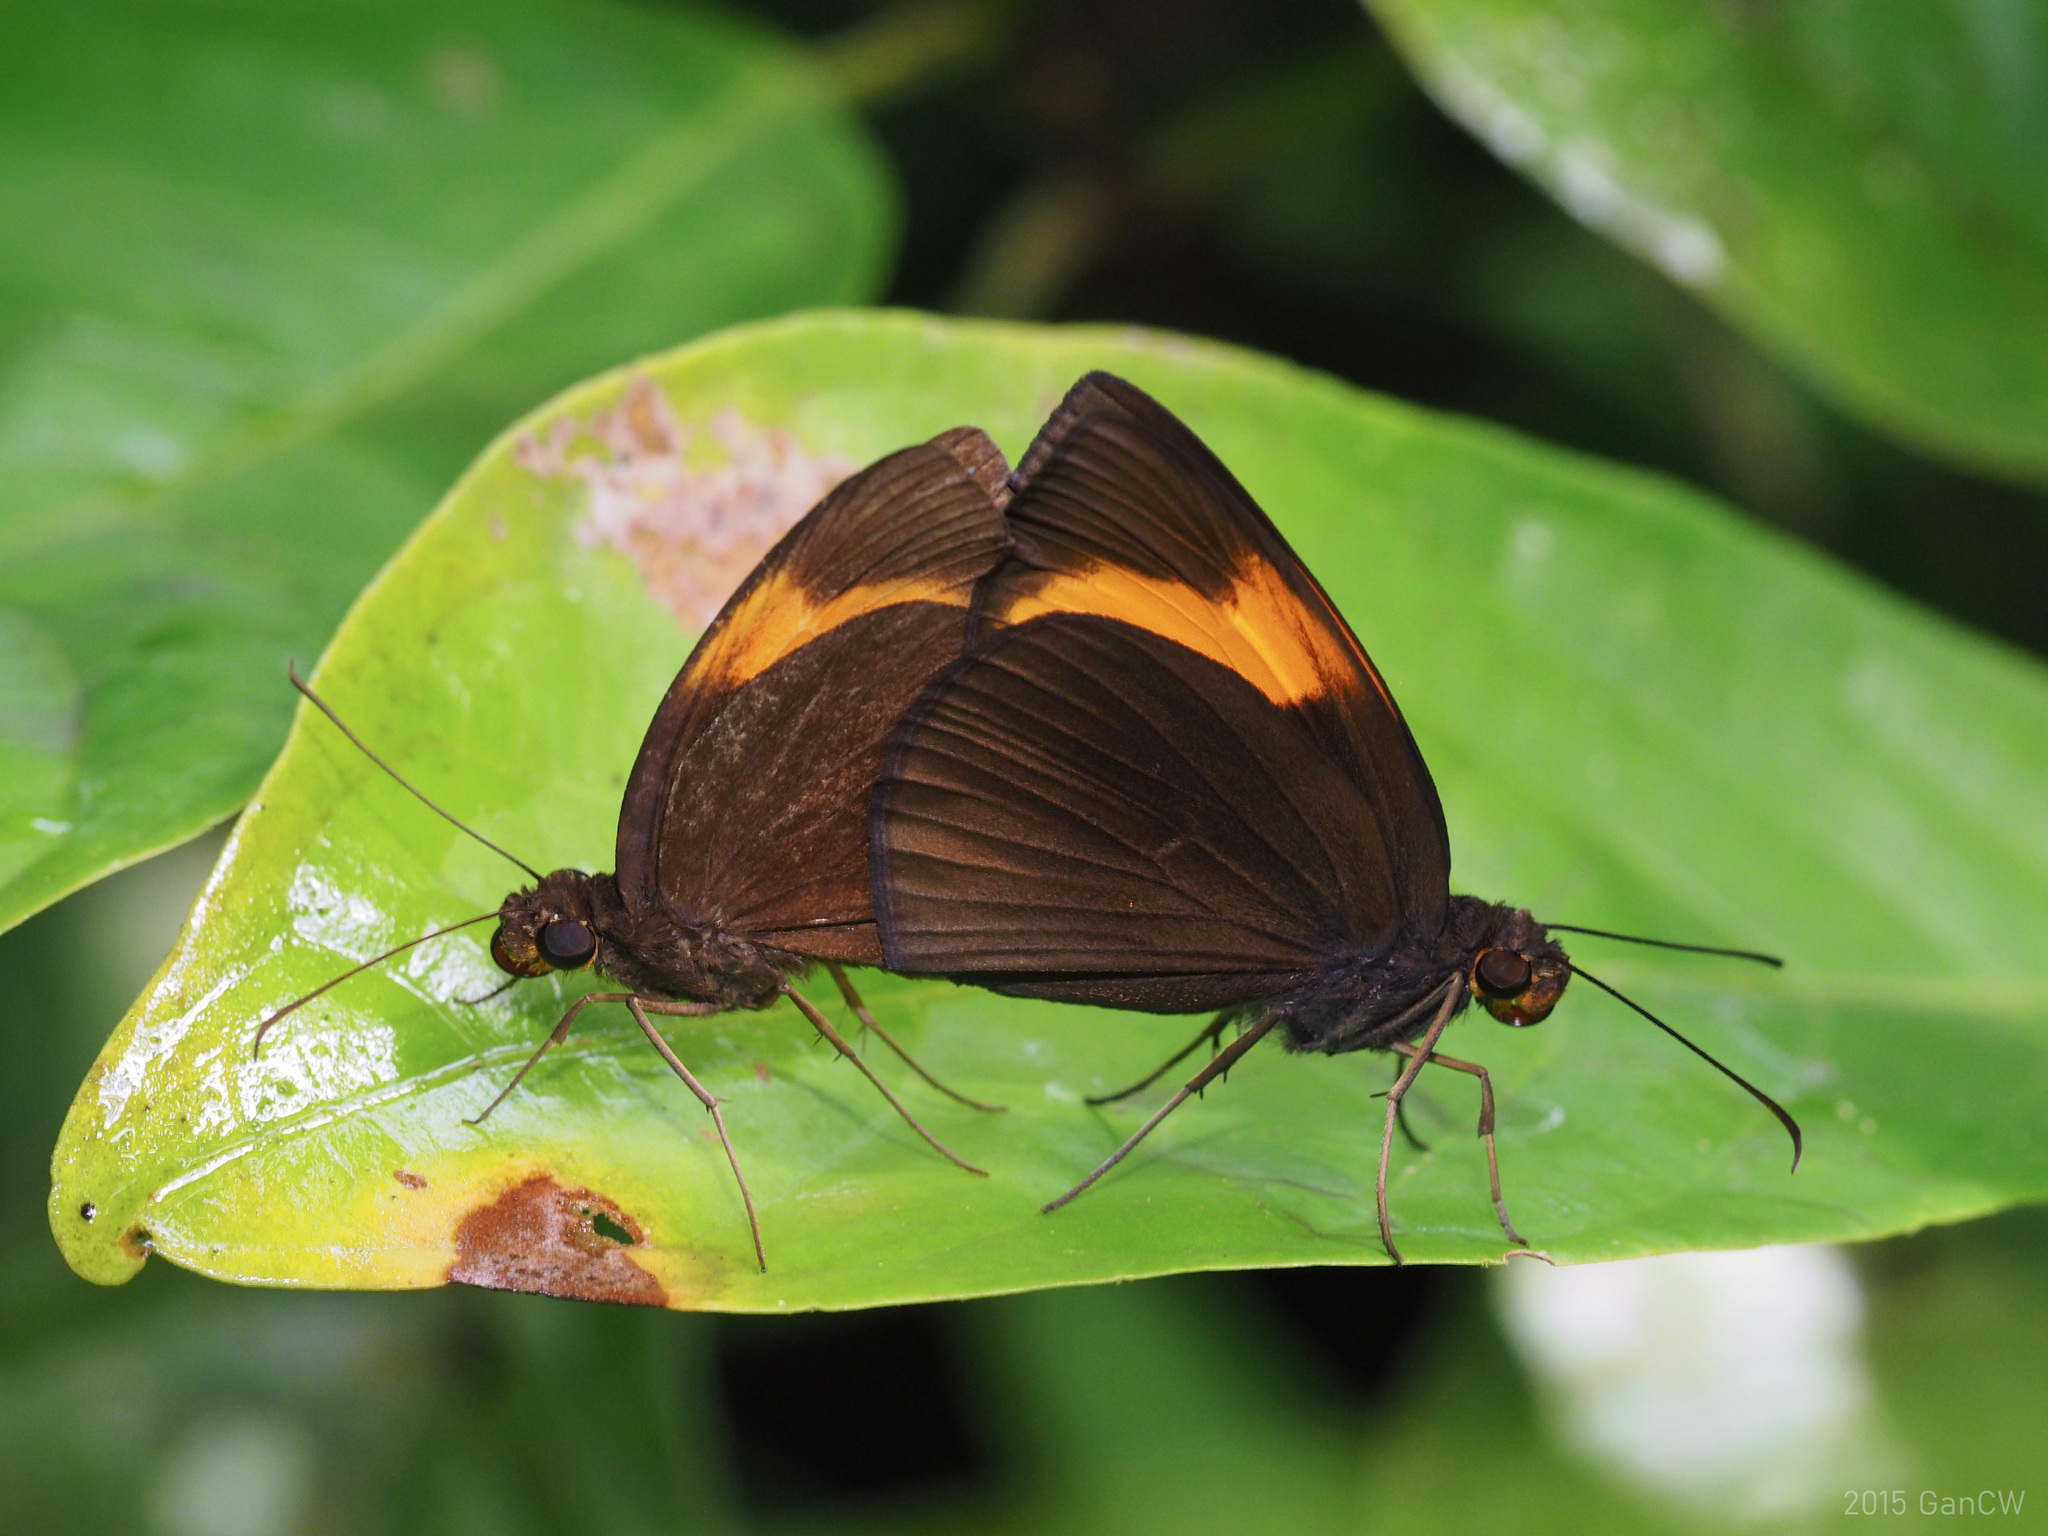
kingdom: Animalia
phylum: Arthropoda
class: Insecta
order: Lepidoptera
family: Hesperiidae
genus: Ancistroides
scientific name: Ancistroides armatus
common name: Red demon
